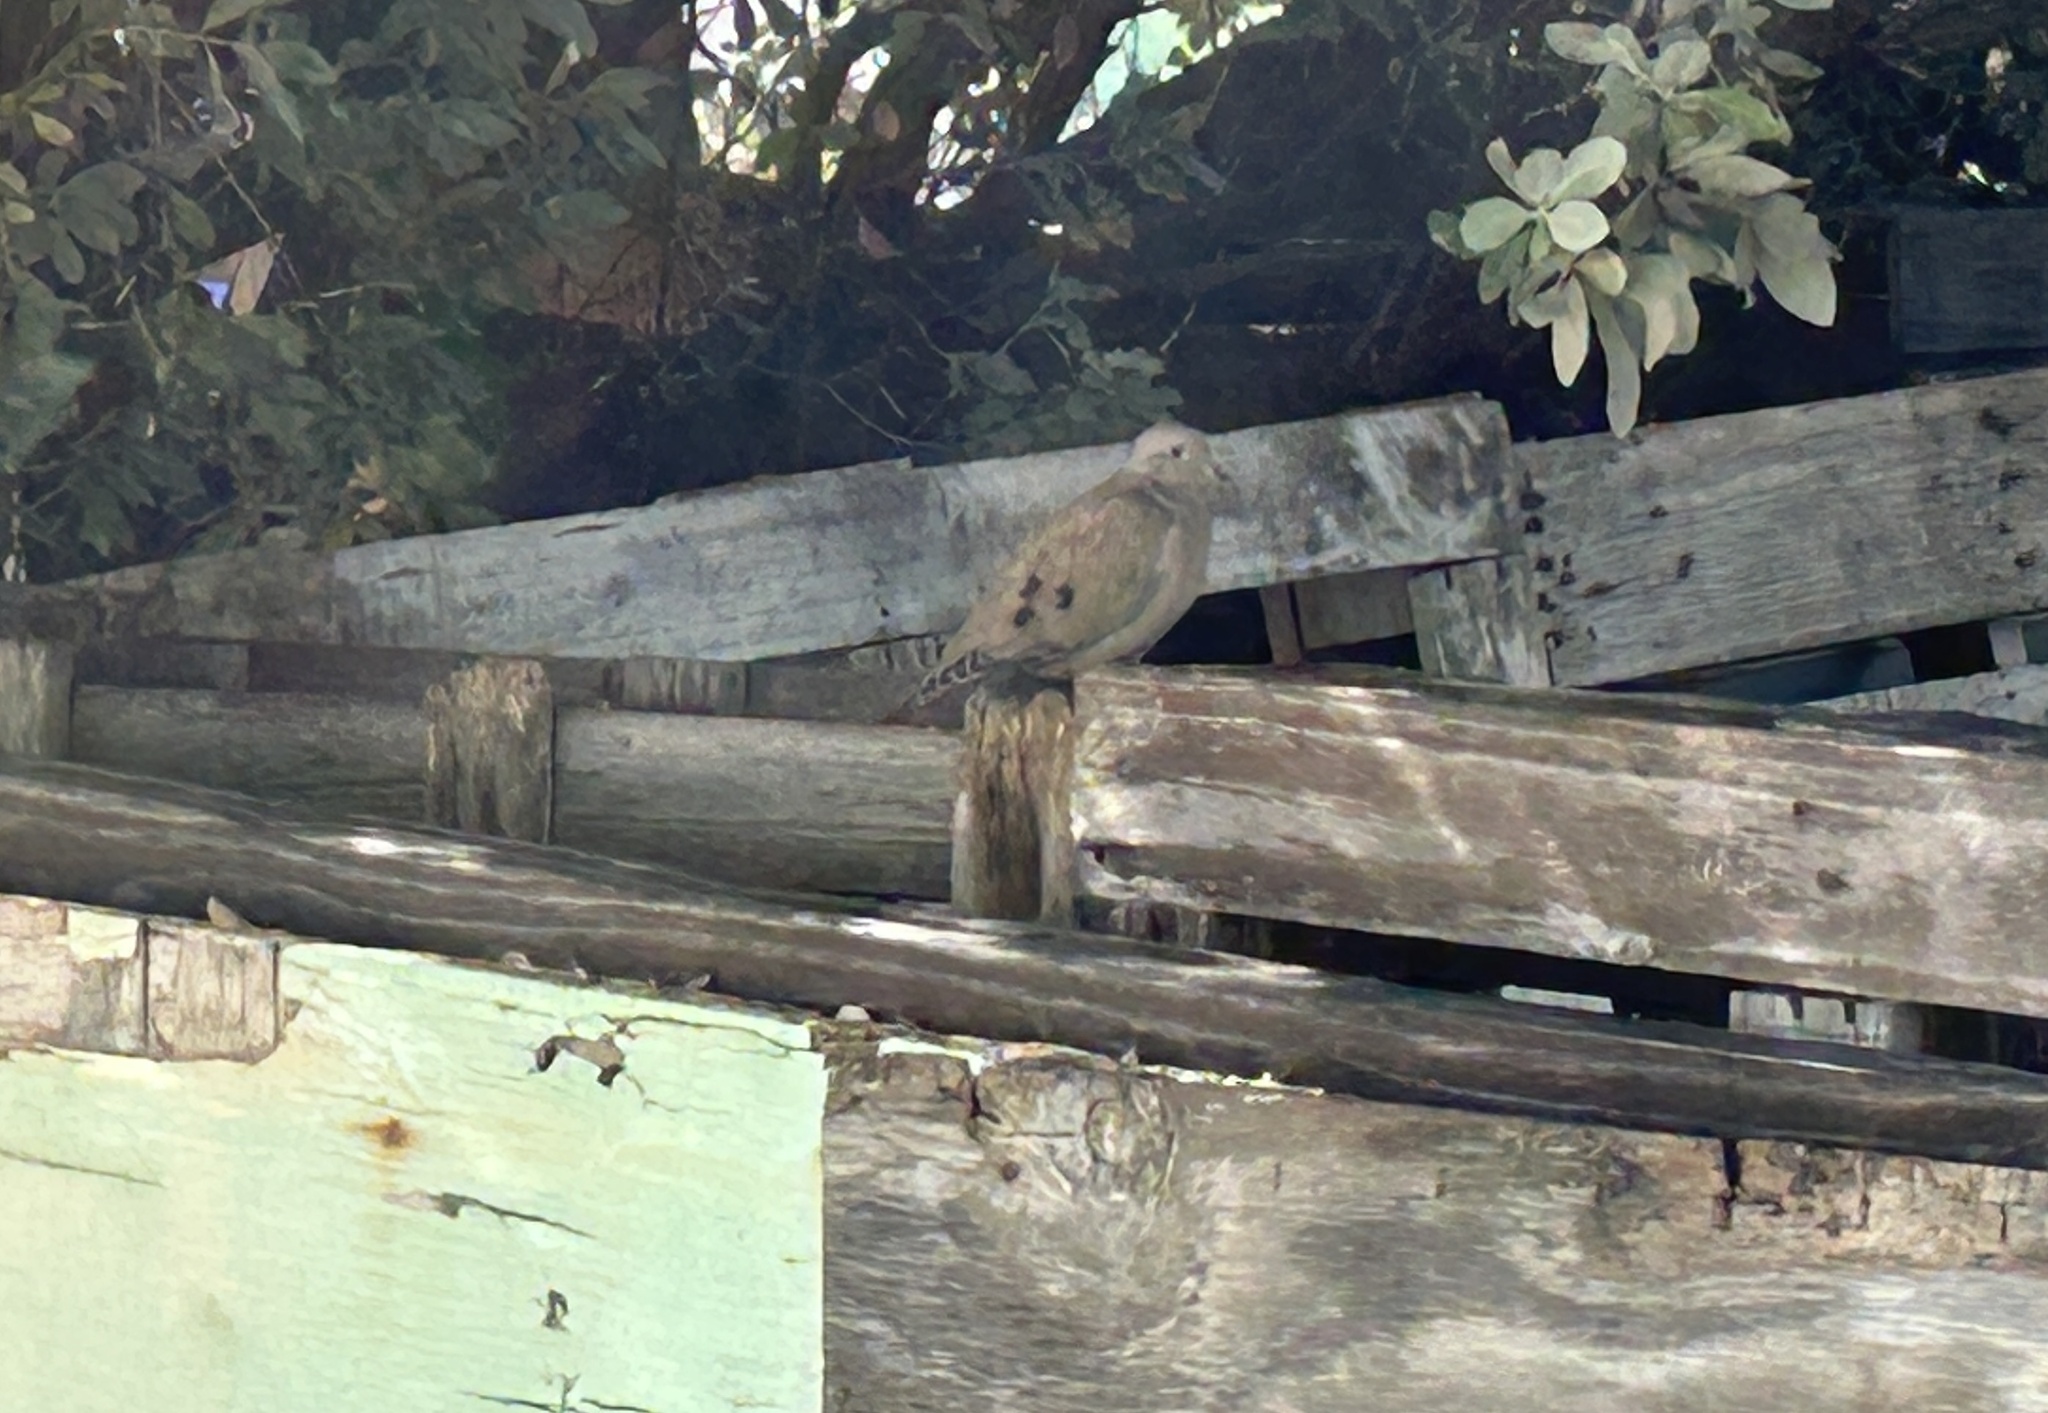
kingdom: Animalia
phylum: Chordata
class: Aves
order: Columbiformes
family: Columbidae
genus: Zenaida
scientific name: Zenaida auriculata
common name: Eared dove
